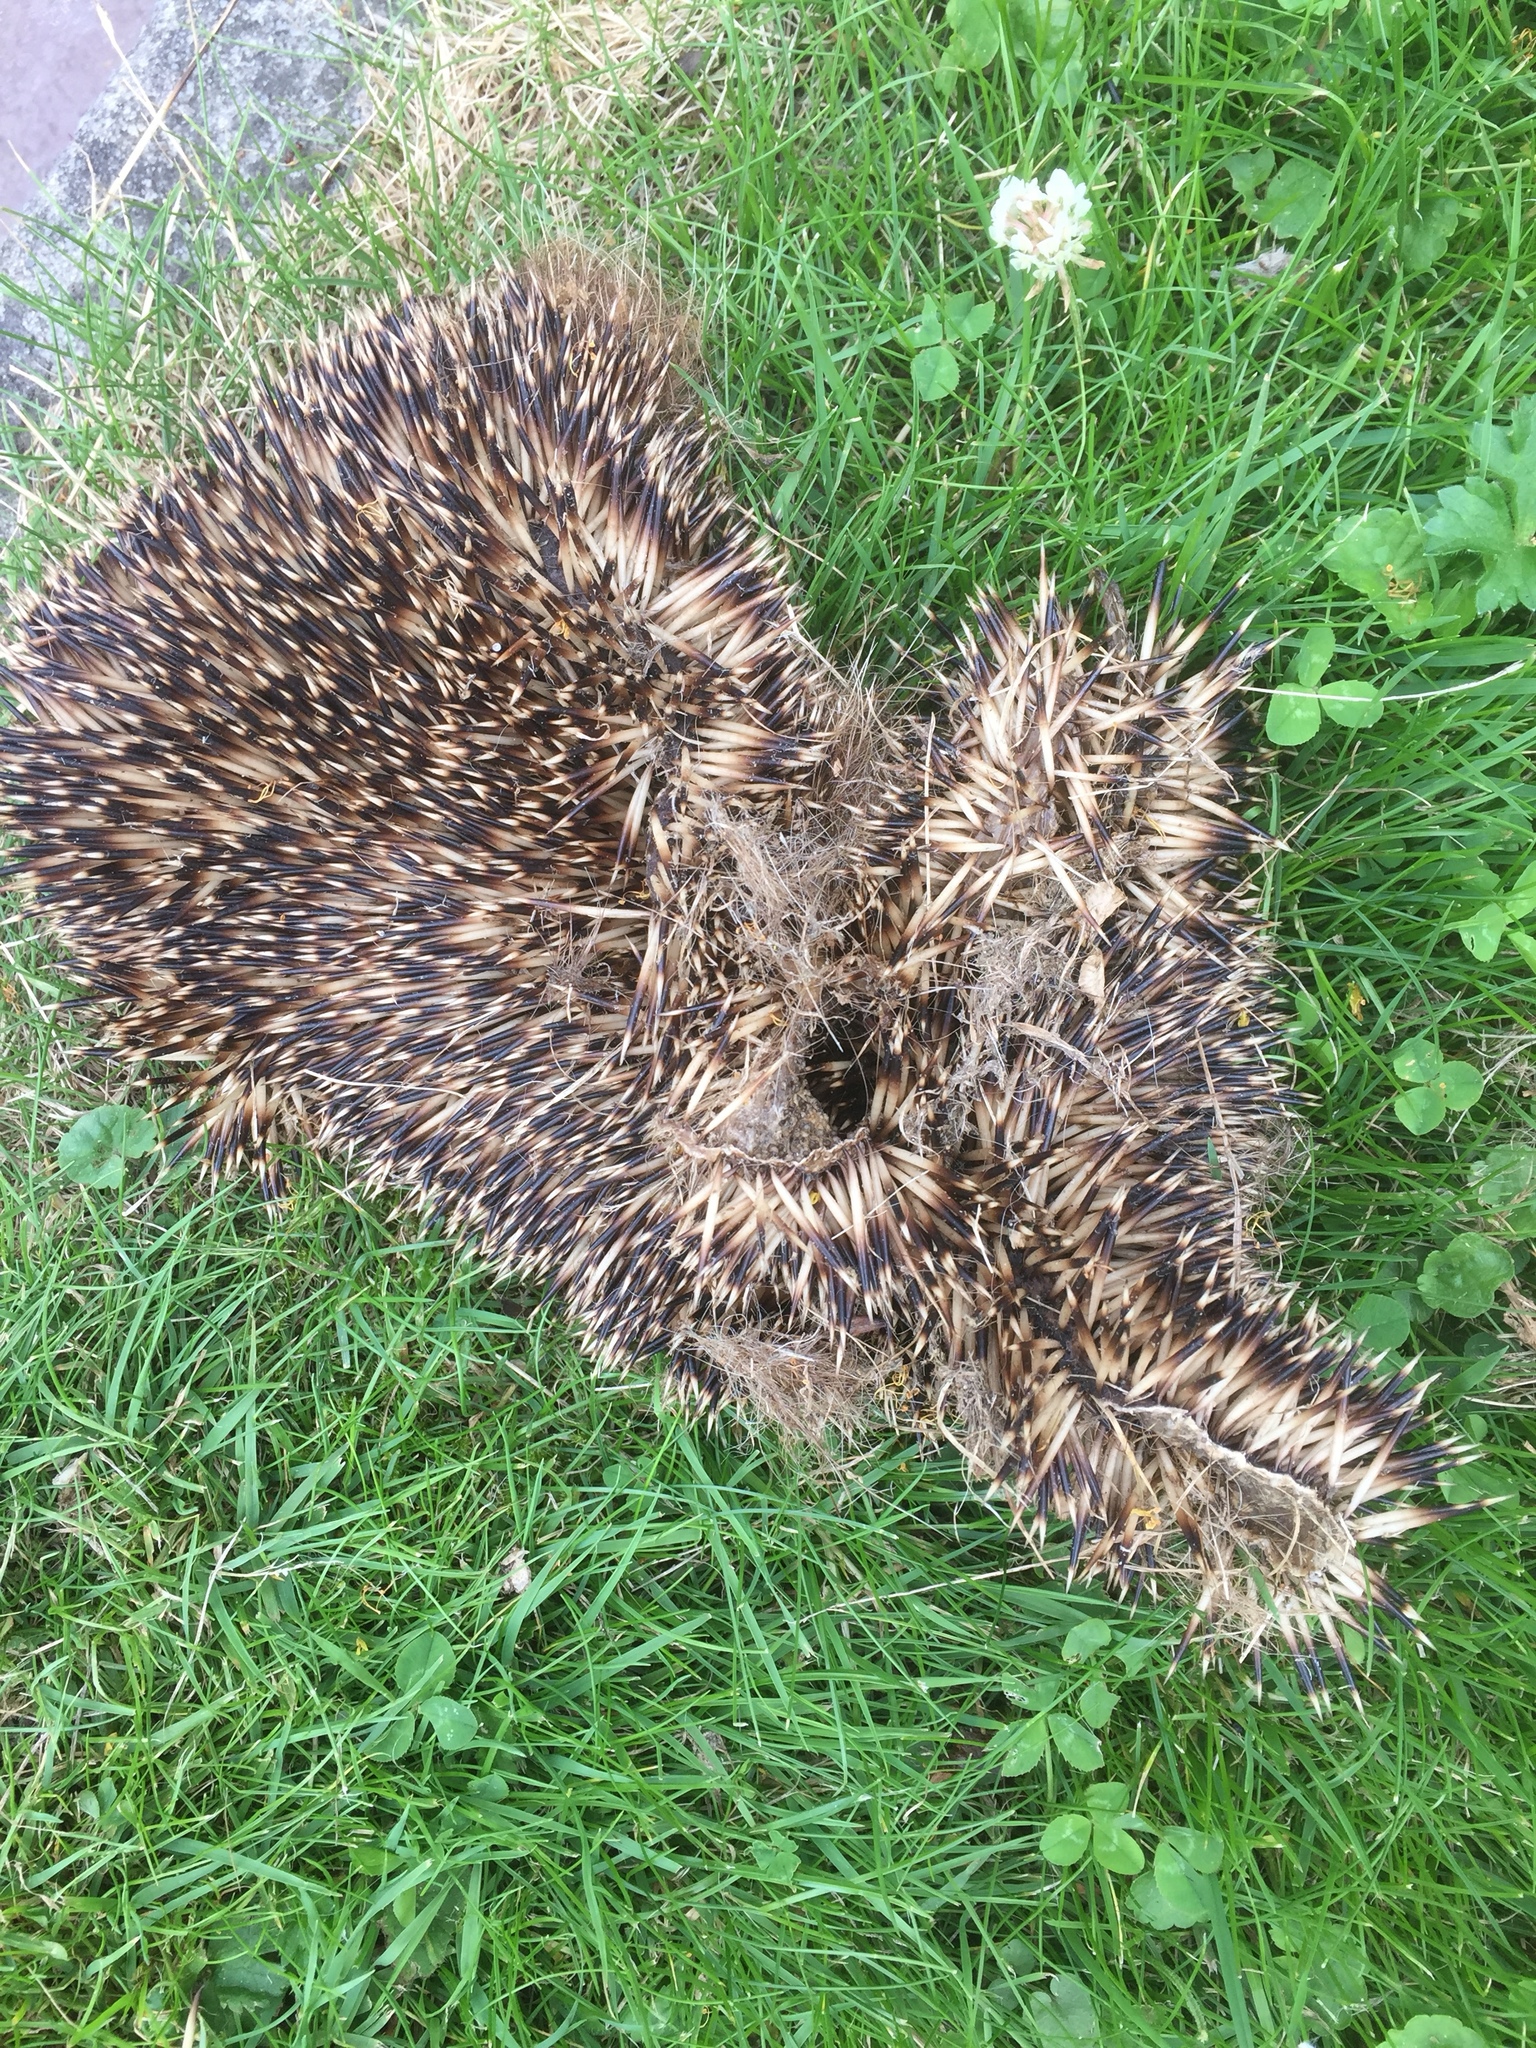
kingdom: Animalia
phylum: Chordata
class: Mammalia
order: Erinaceomorpha
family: Erinaceidae
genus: Erinaceus
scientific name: Erinaceus europaeus
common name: West european hedgehog
